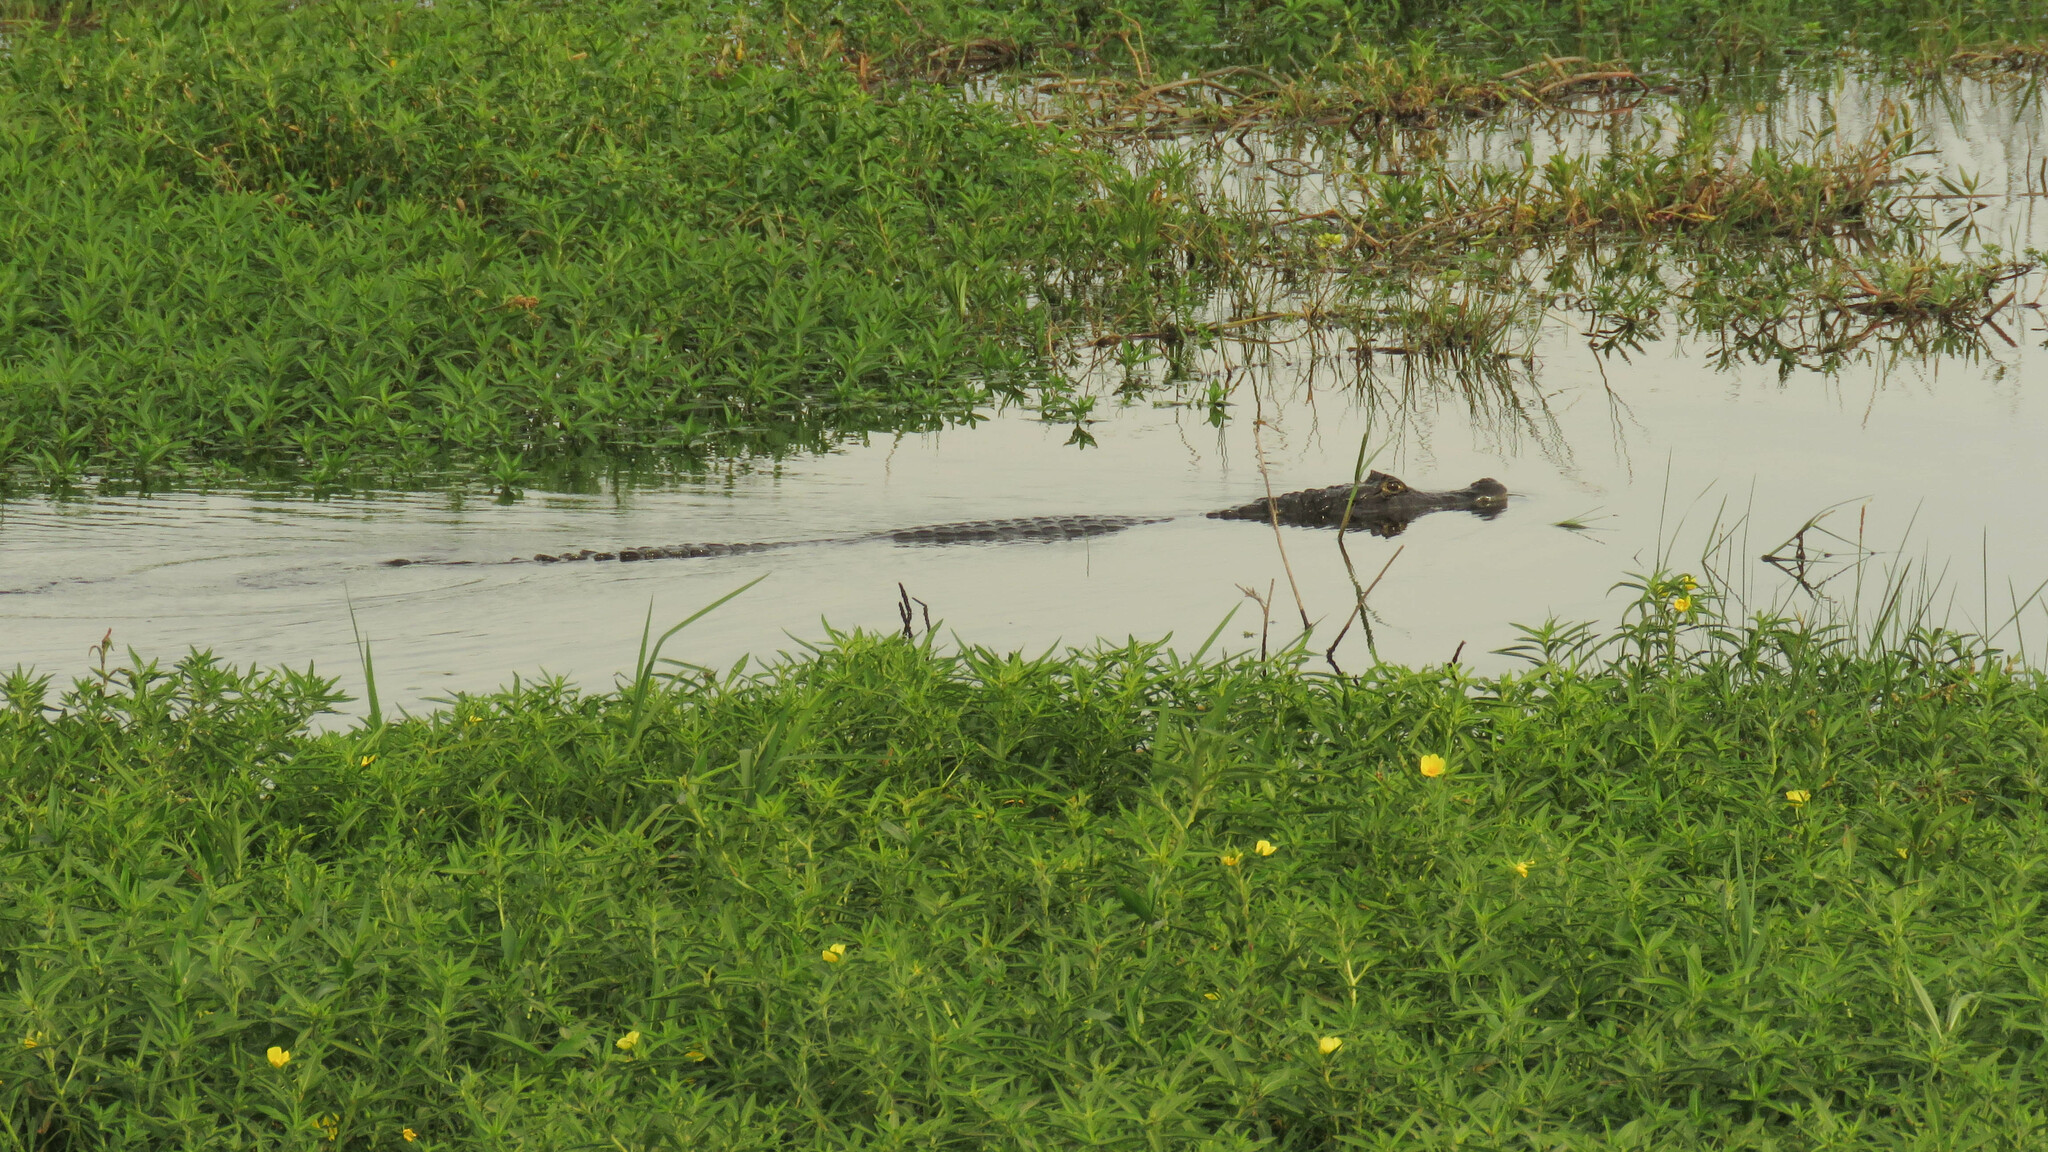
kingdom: Animalia
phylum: Chordata
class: Crocodylia
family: Alligatoridae
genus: Caiman
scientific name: Caiman yacare
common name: Yacare caiman
